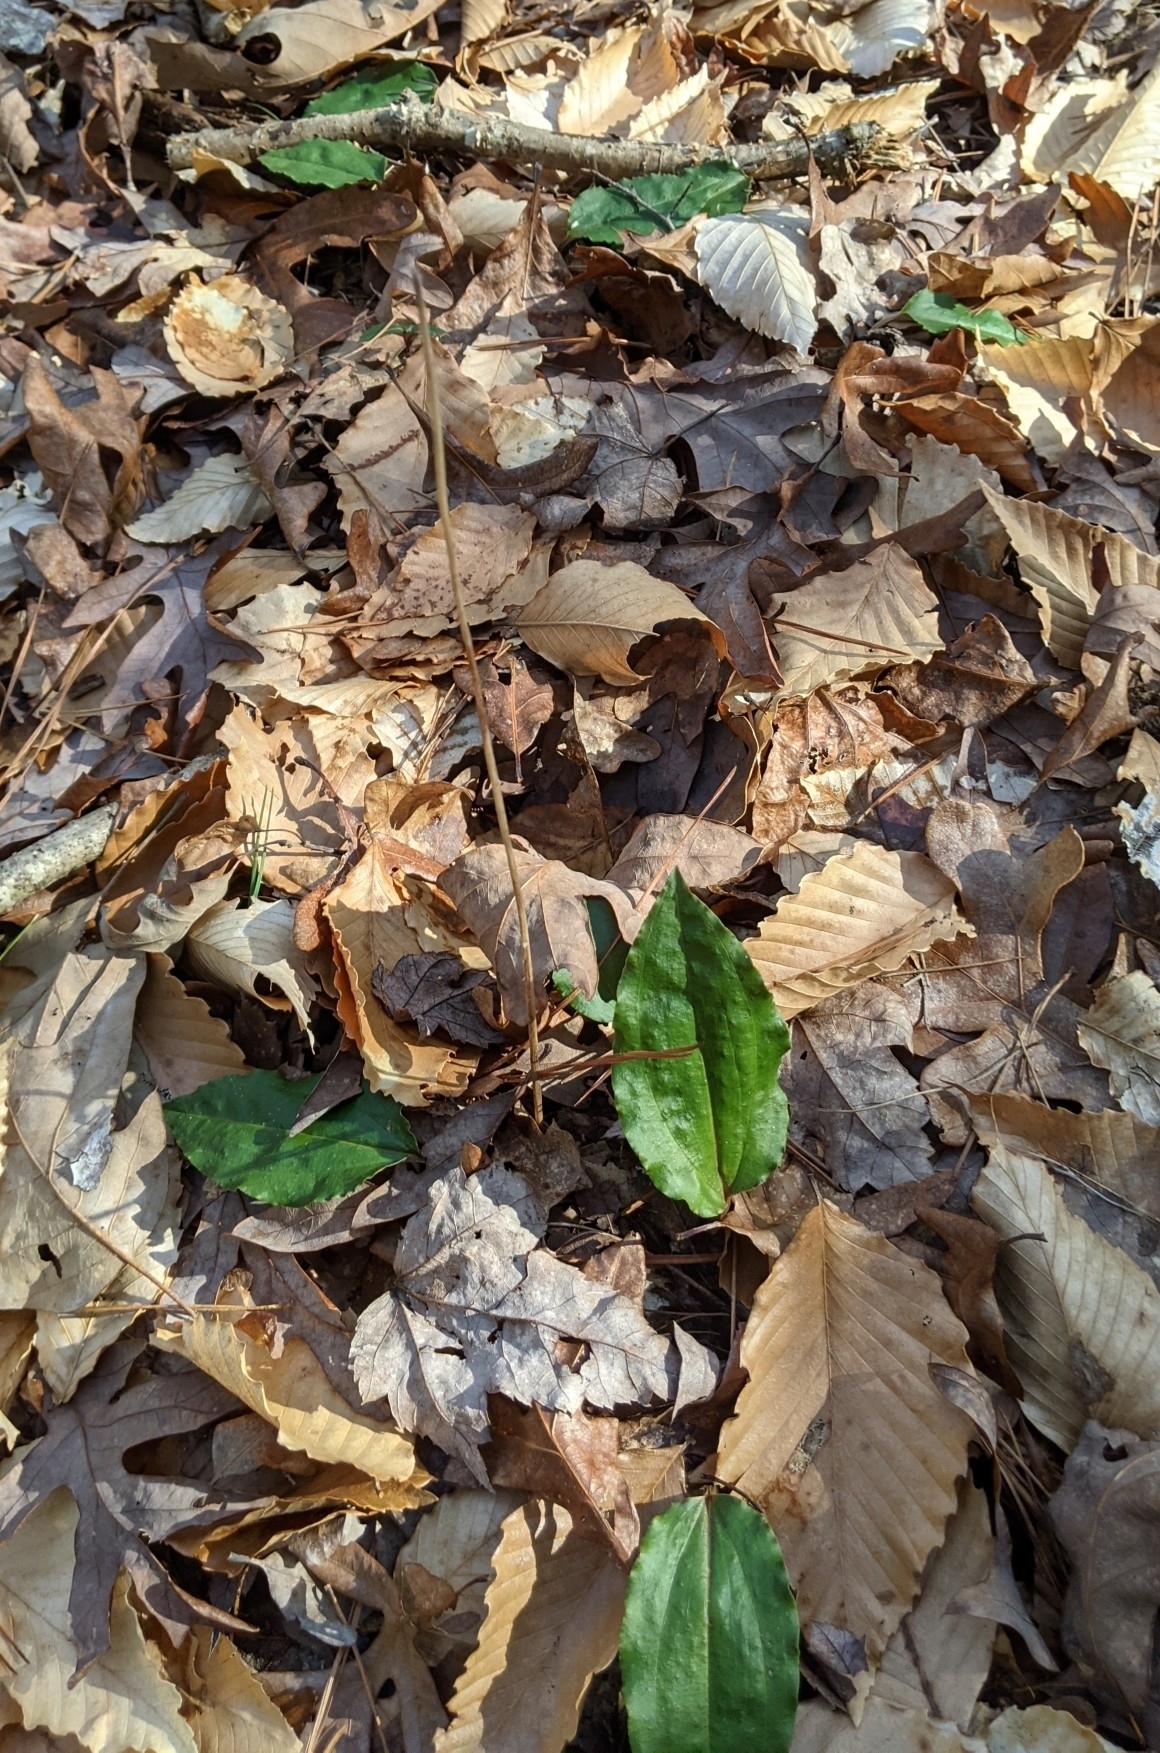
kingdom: Plantae
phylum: Tracheophyta
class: Liliopsida
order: Asparagales
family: Orchidaceae
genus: Tipularia
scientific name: Tipularia discolor
